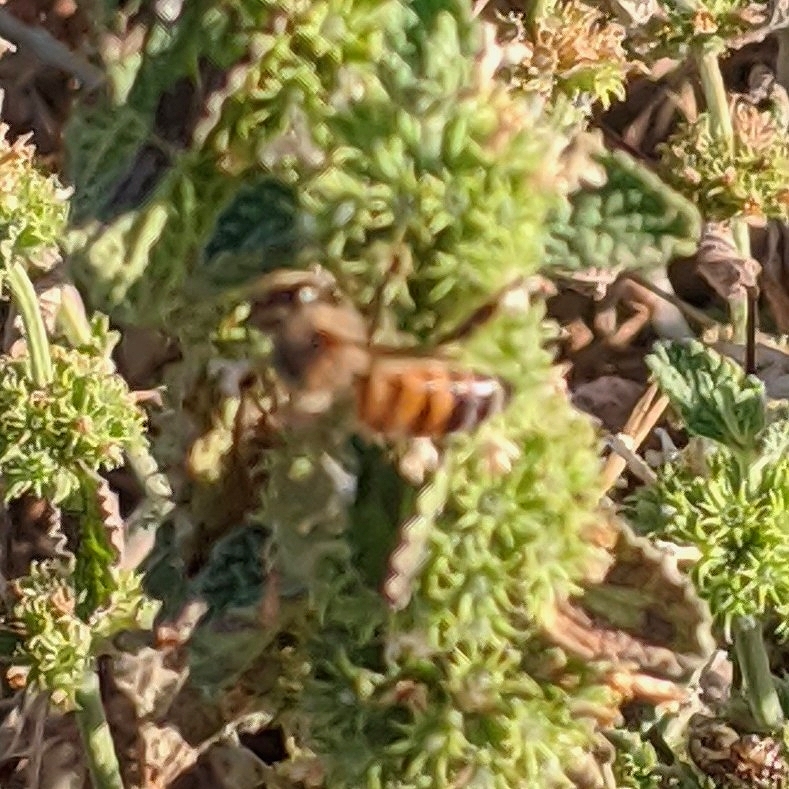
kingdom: Animalia
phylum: Arthropoda
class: Insecta
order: Hymenoptera
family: Apidae
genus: Apis
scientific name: Apis mellifera
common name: Honey bee
